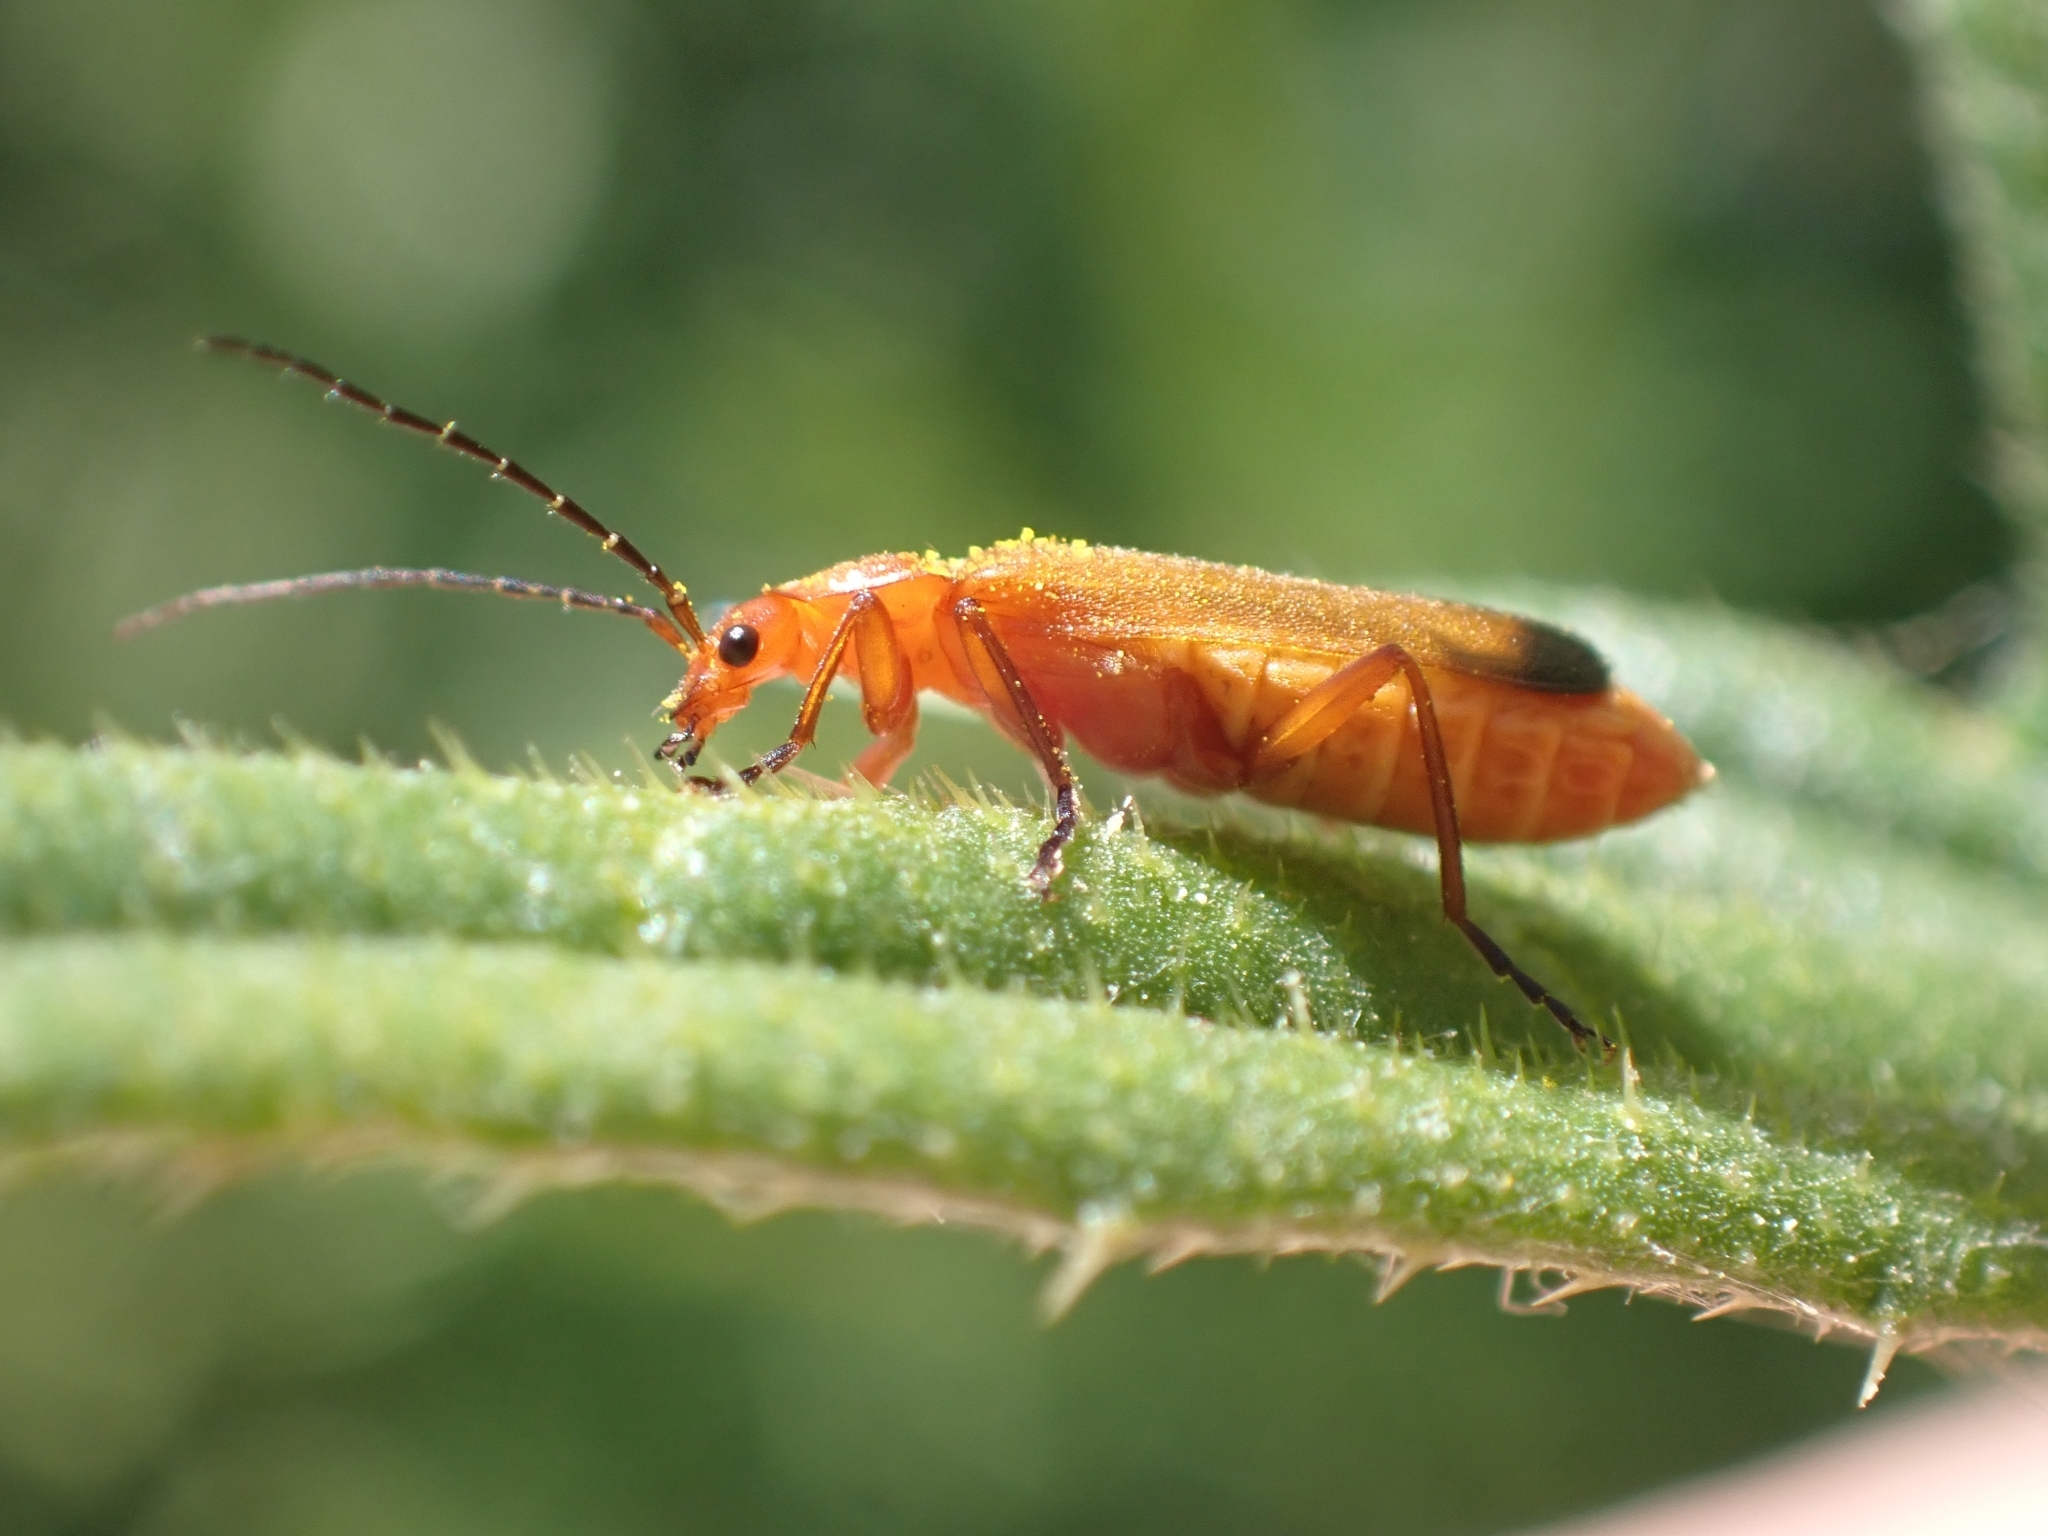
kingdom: Animalia
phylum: Arthropoda
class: Insecta
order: Coleoptera
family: Cantharidae
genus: Rhagonycha
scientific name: Rhagonycha fulva
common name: Common red soldier beetle
